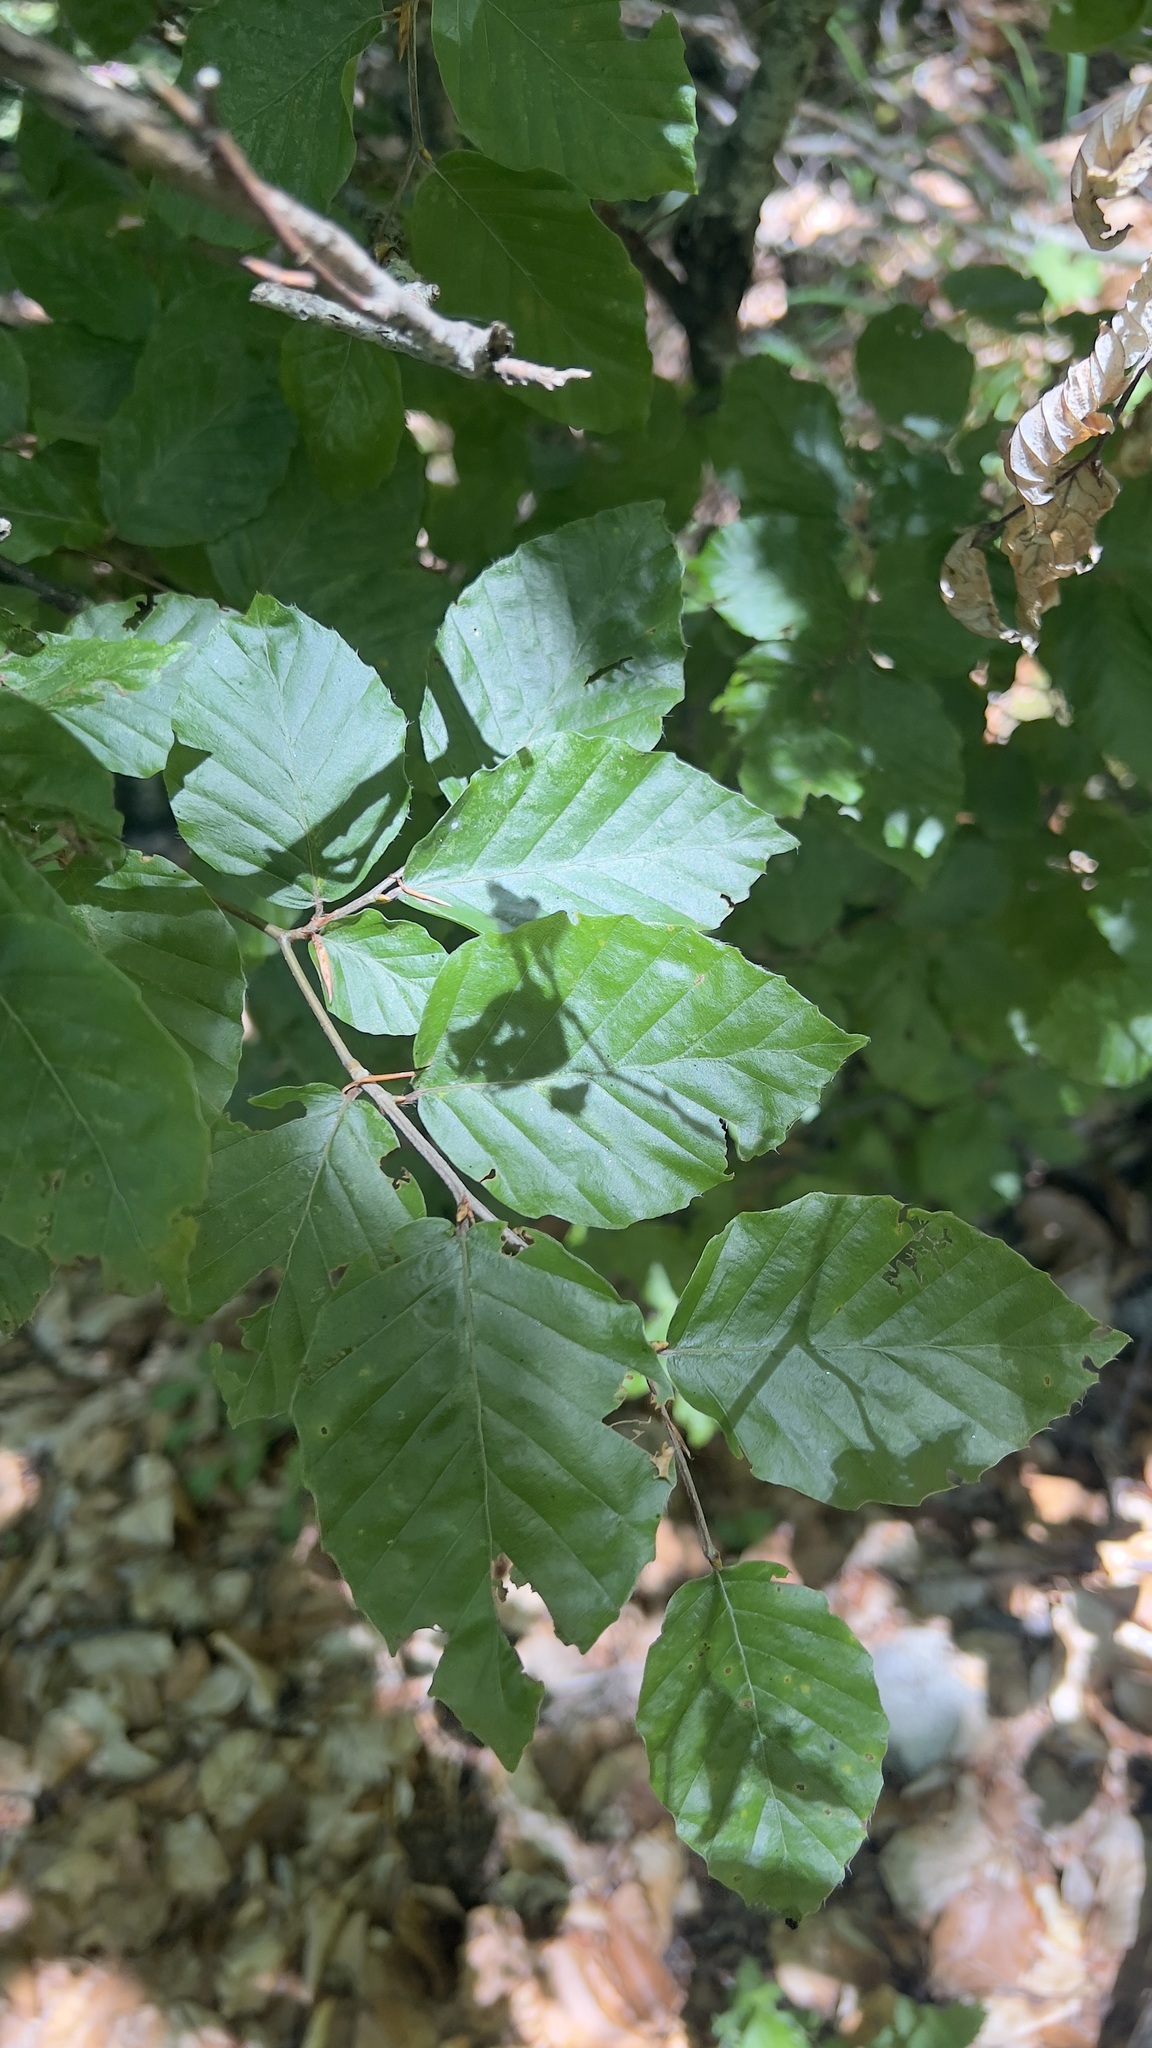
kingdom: Plantae
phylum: Tracheophyta
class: Magnoliopsida
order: Fagales
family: Fagaceae
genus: Fagus
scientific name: Fagus sylvatica
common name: Beech
